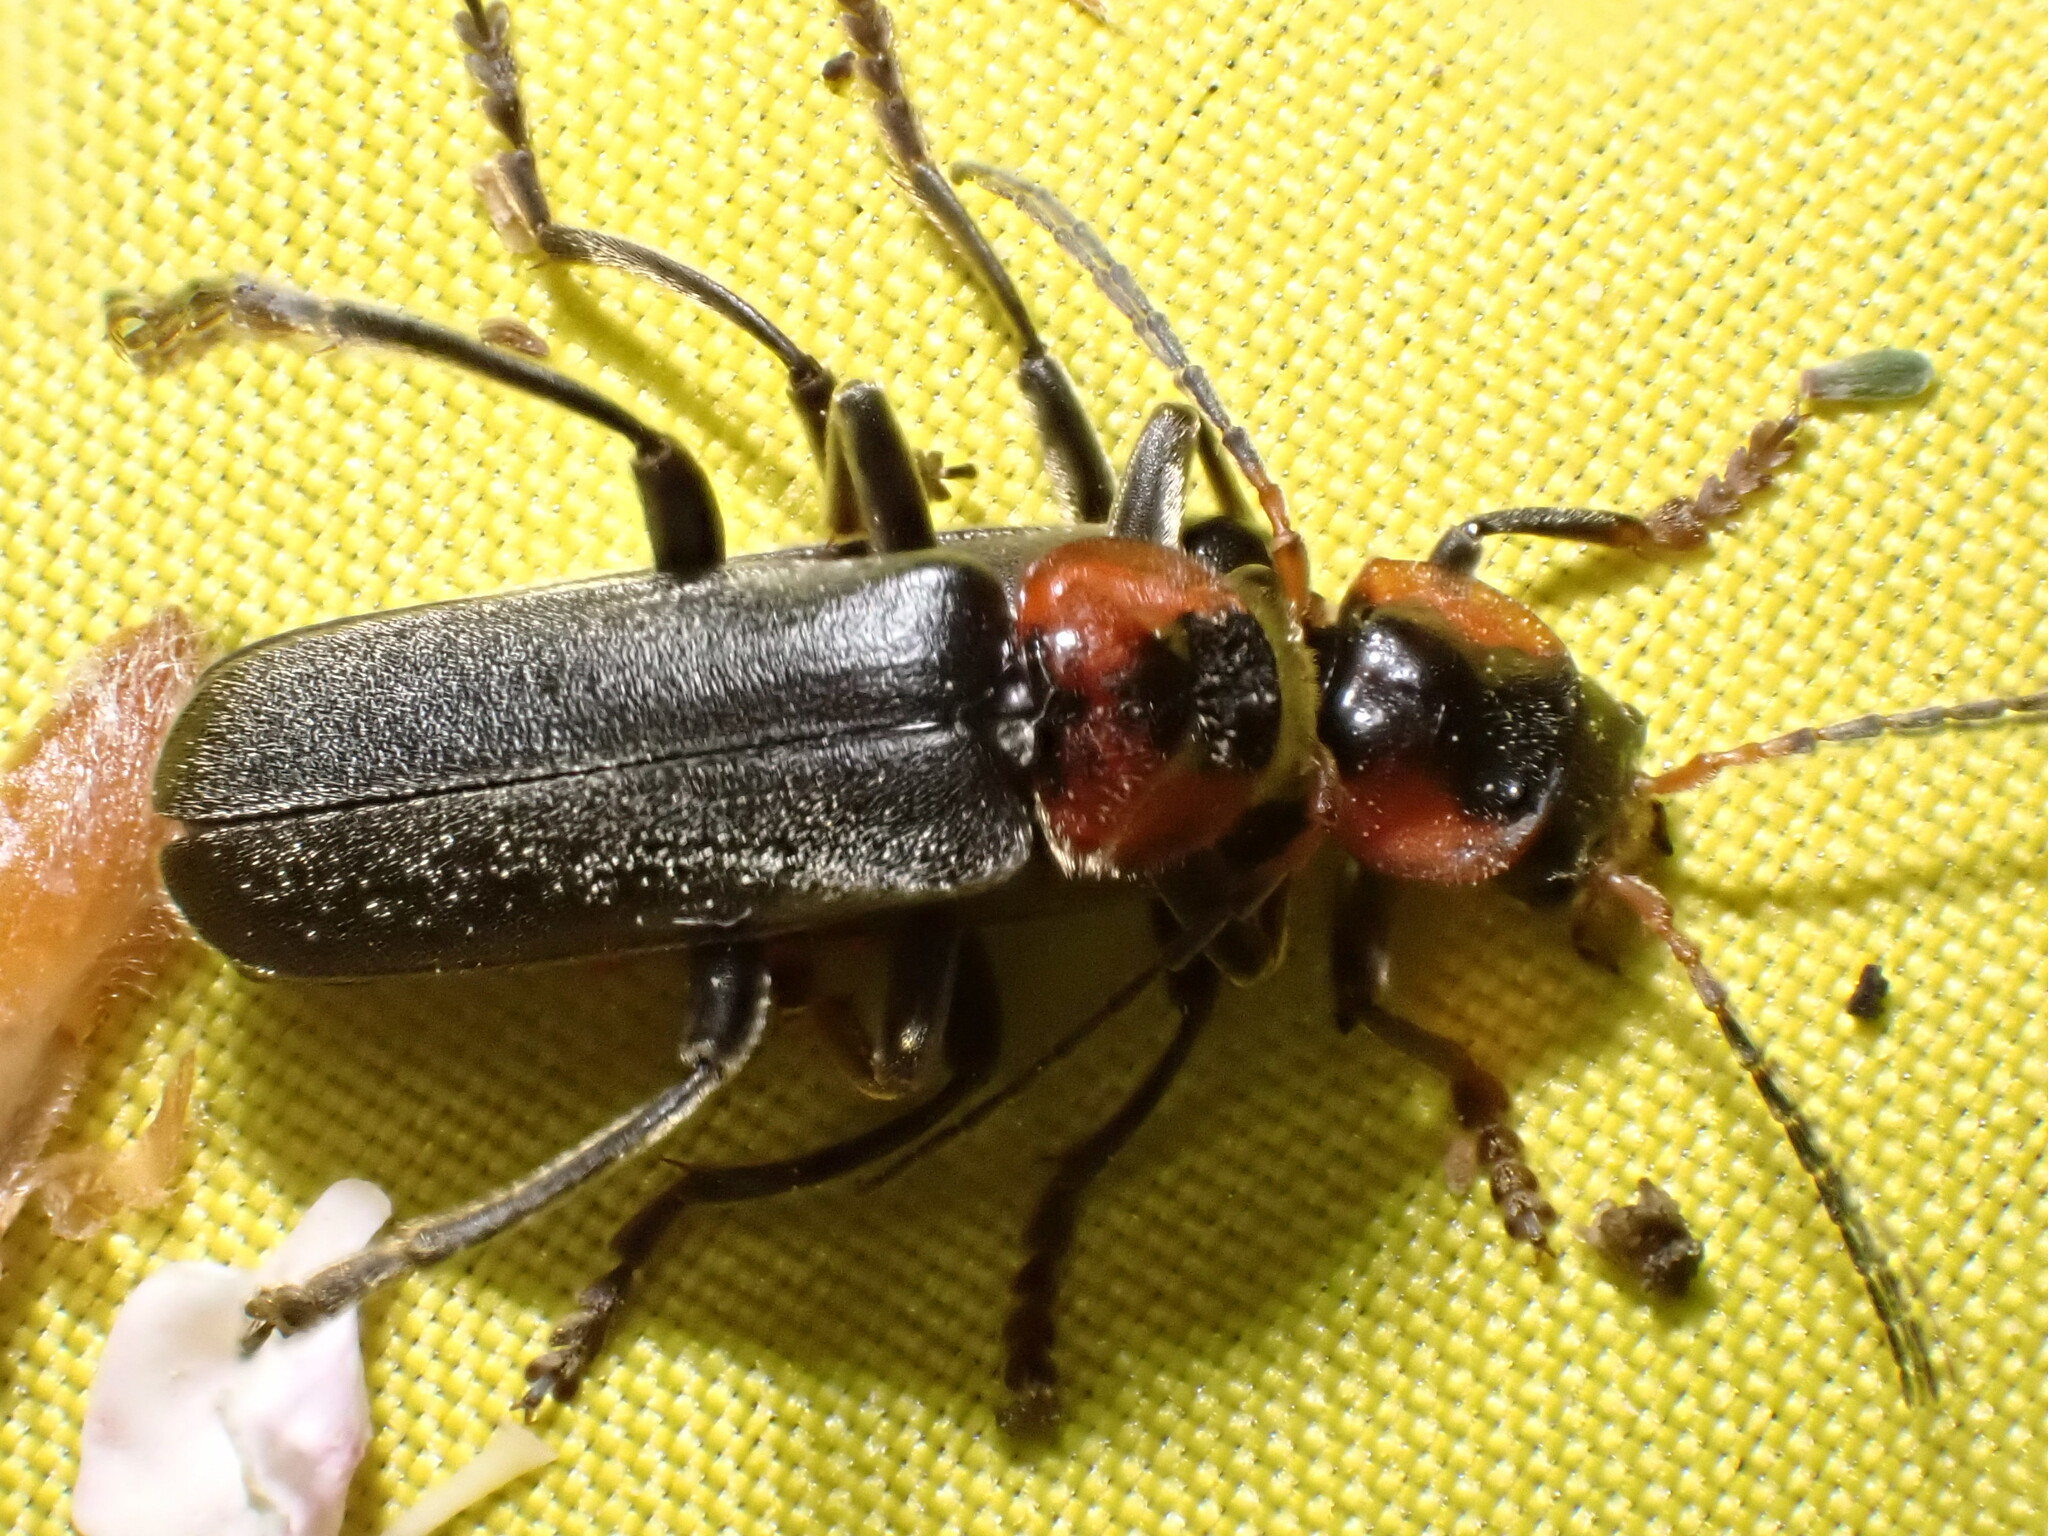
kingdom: Animalia
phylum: Arthropoda
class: Insecta
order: Coleoptera
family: Cantharidae
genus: Cantharis
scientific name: Cantharis fusca
